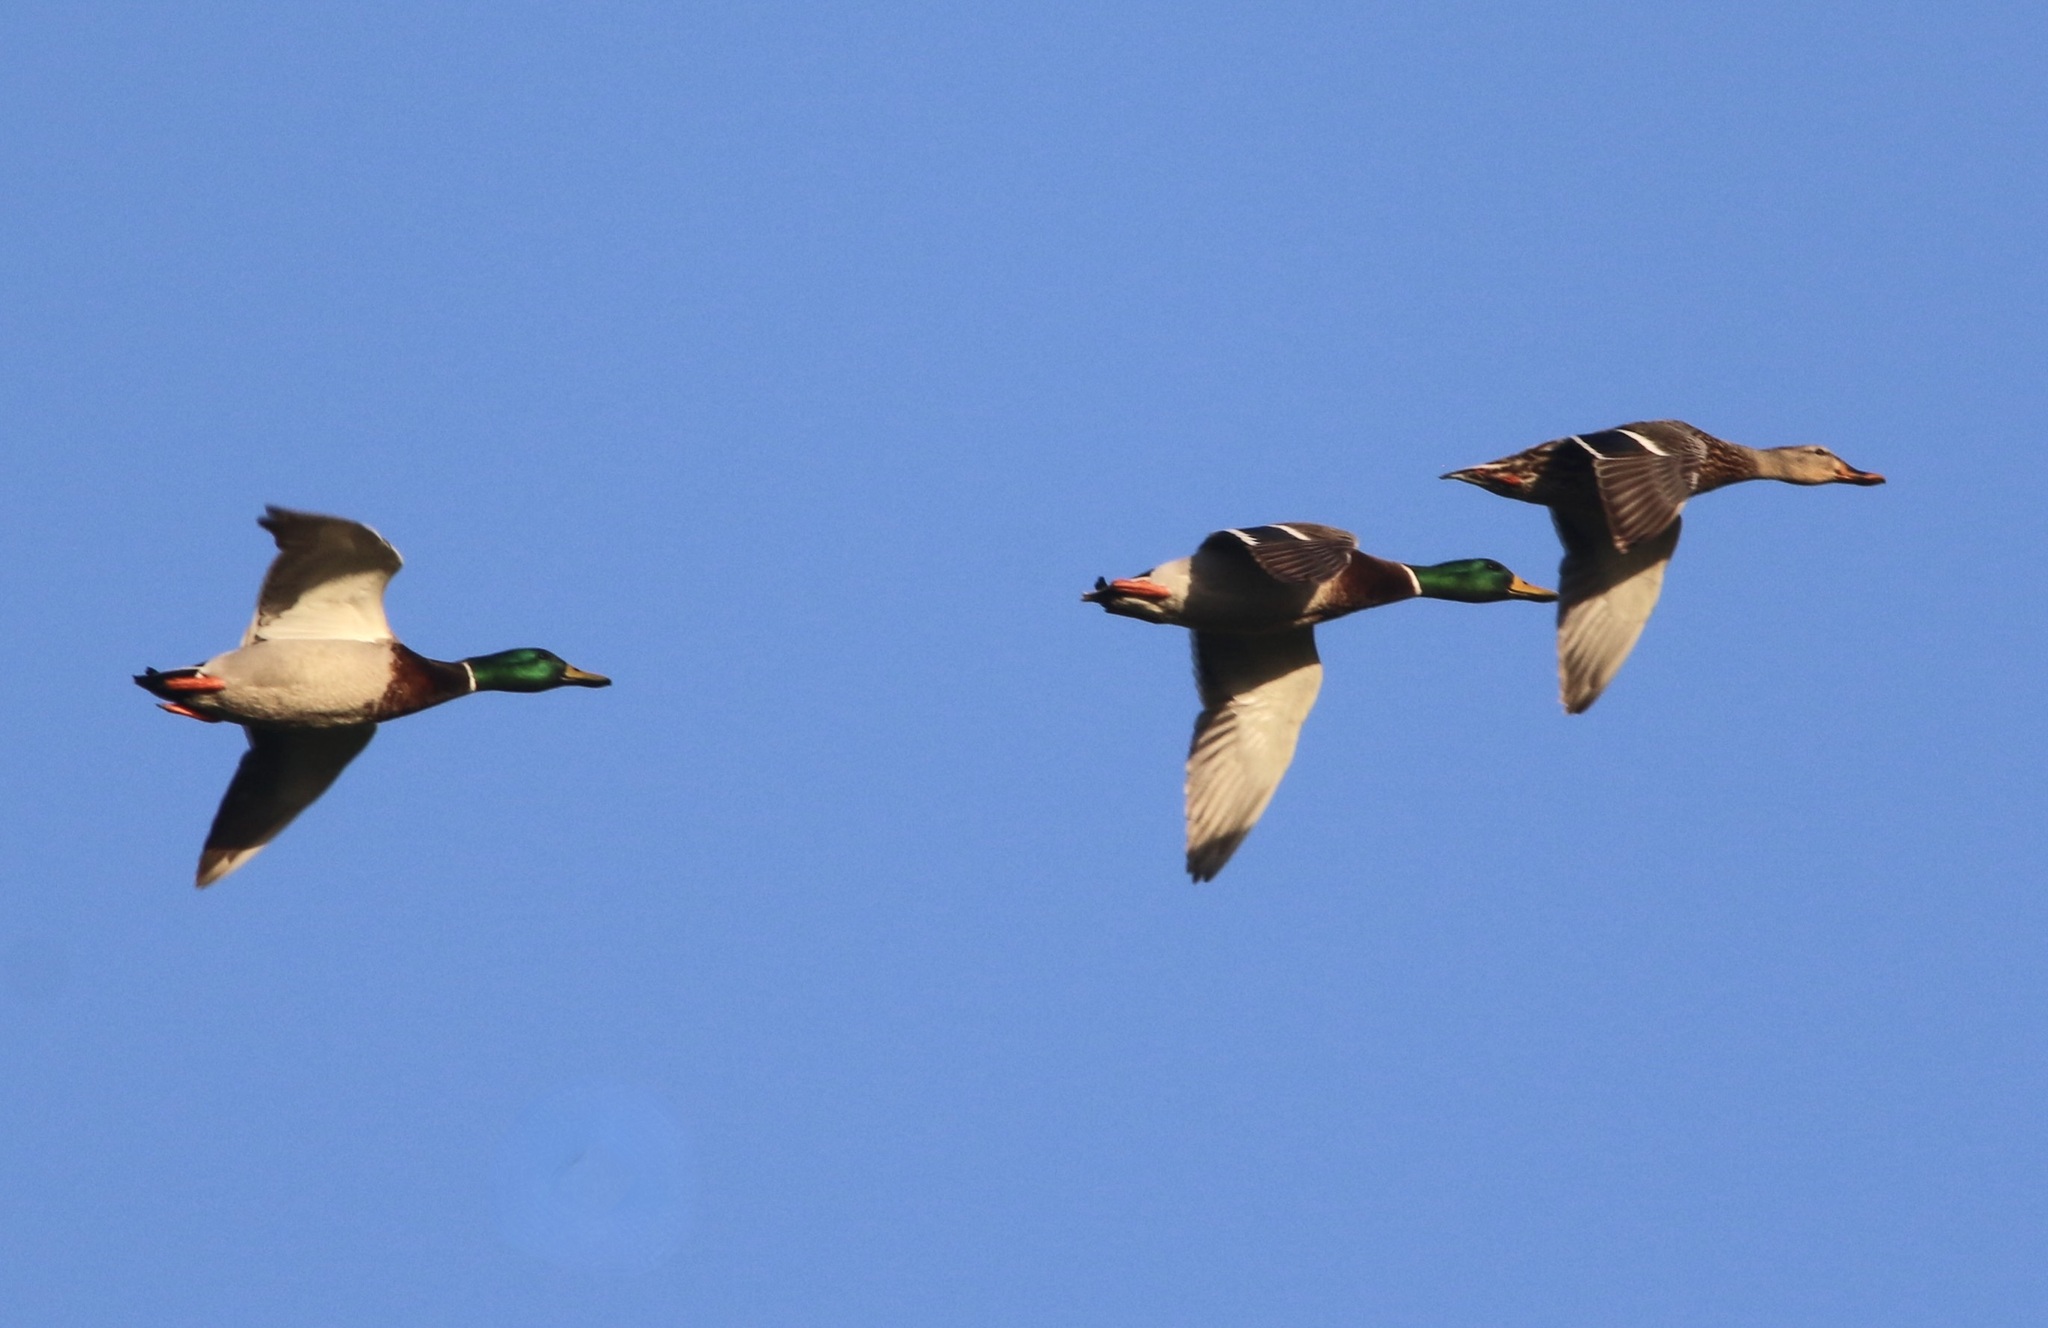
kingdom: Animalia
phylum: Chordata
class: Aves
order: Anseriformes
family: Anatidae
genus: Anas
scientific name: Anas platyrhynchos
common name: Mallard
